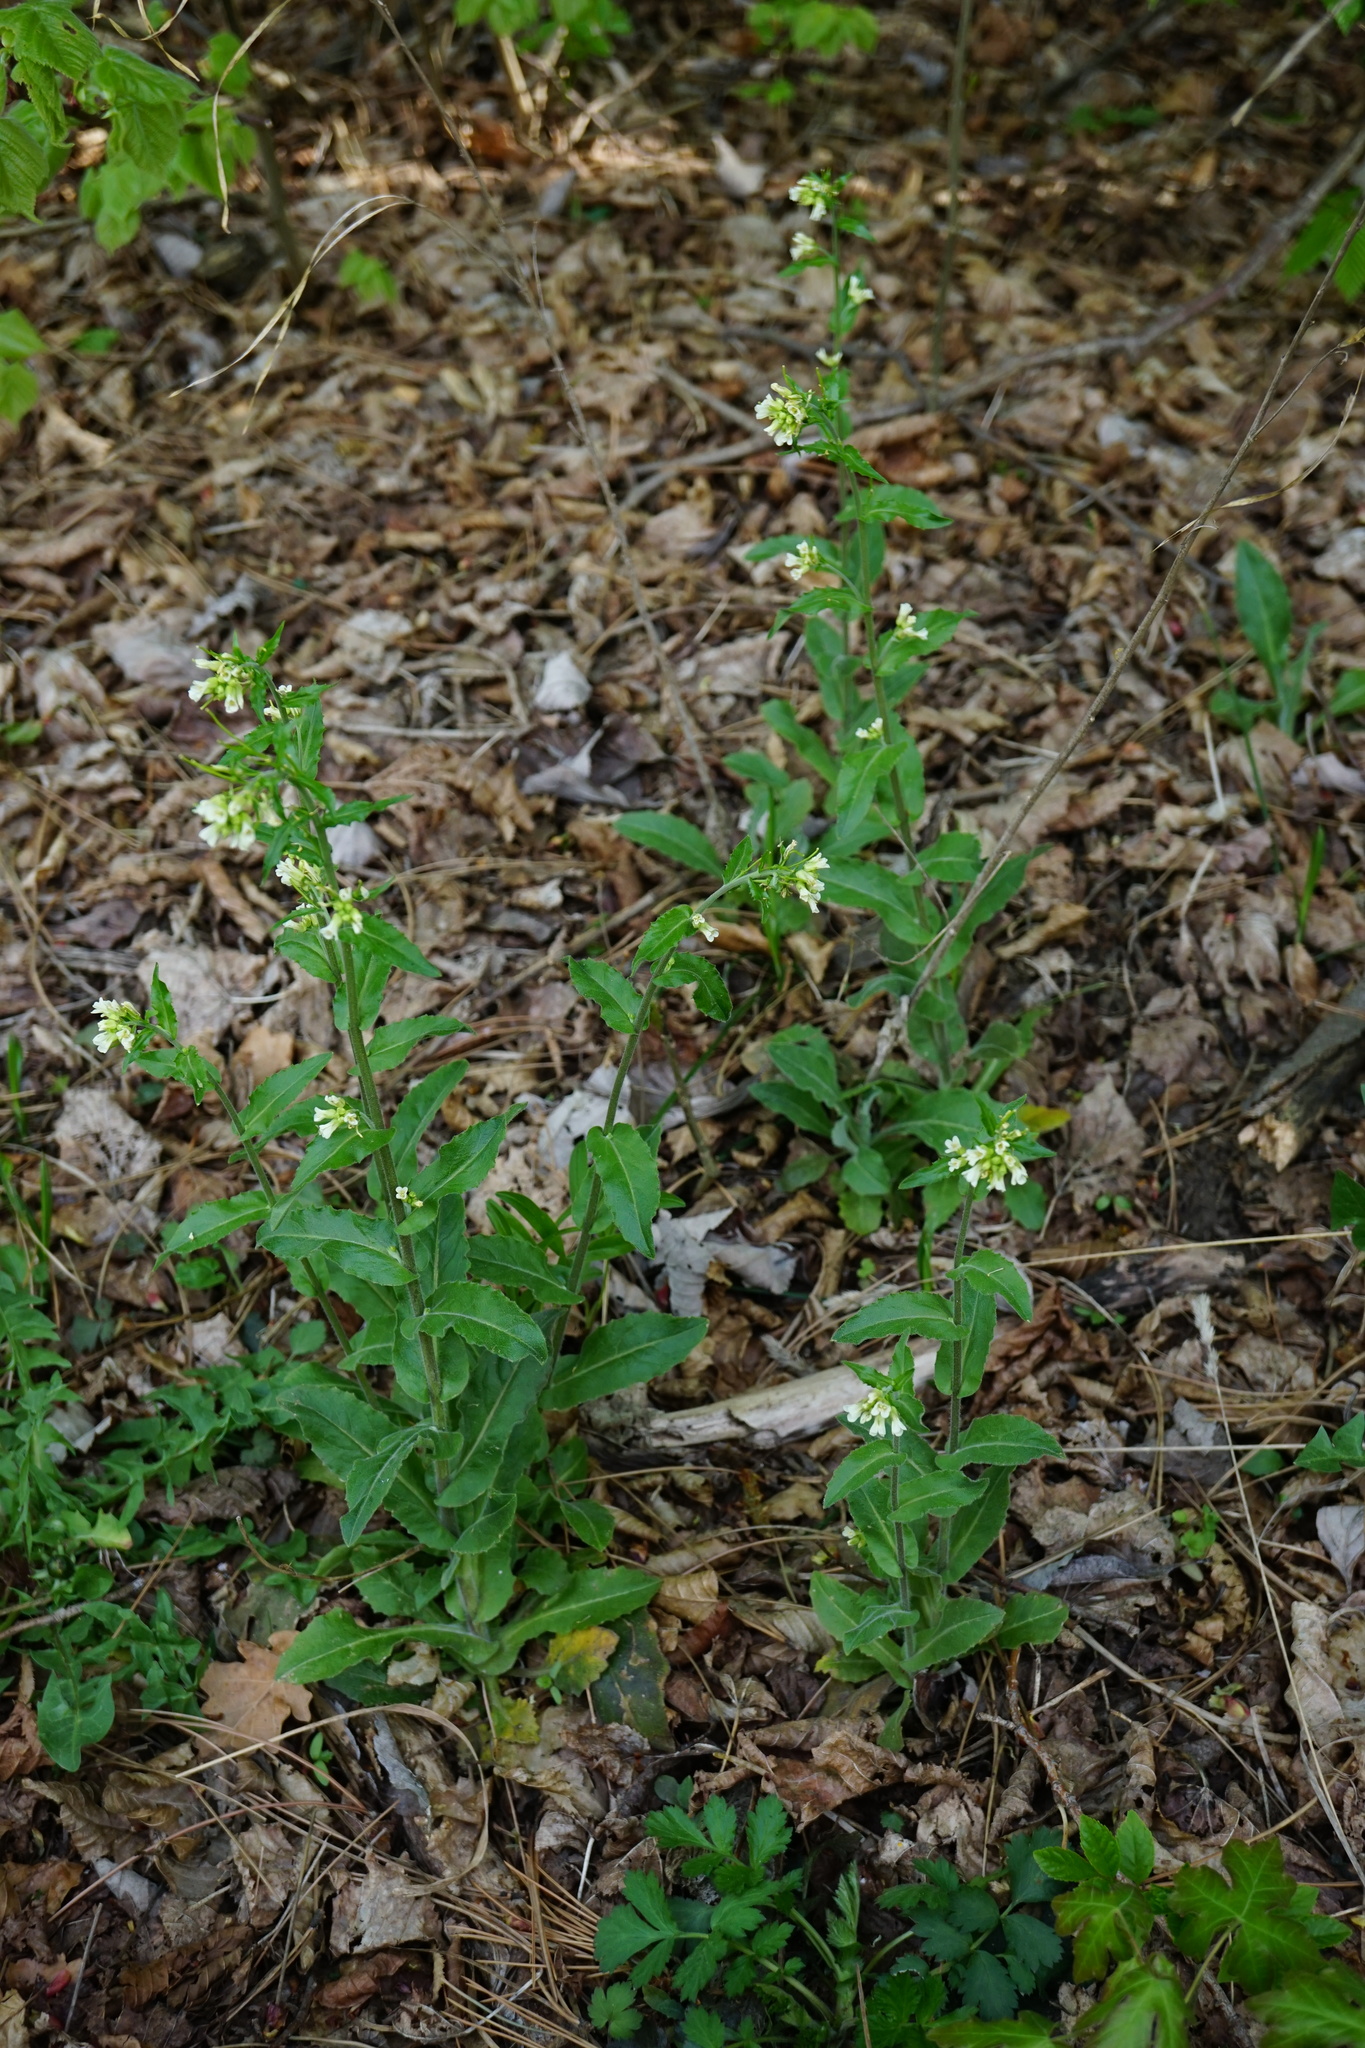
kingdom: Plantae
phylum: Tracheophyta
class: Magnoliopsida
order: Brassicales
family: Brassicaceae
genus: Pseudoturritis
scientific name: Pseudoturritis turrita
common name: Tower cress
